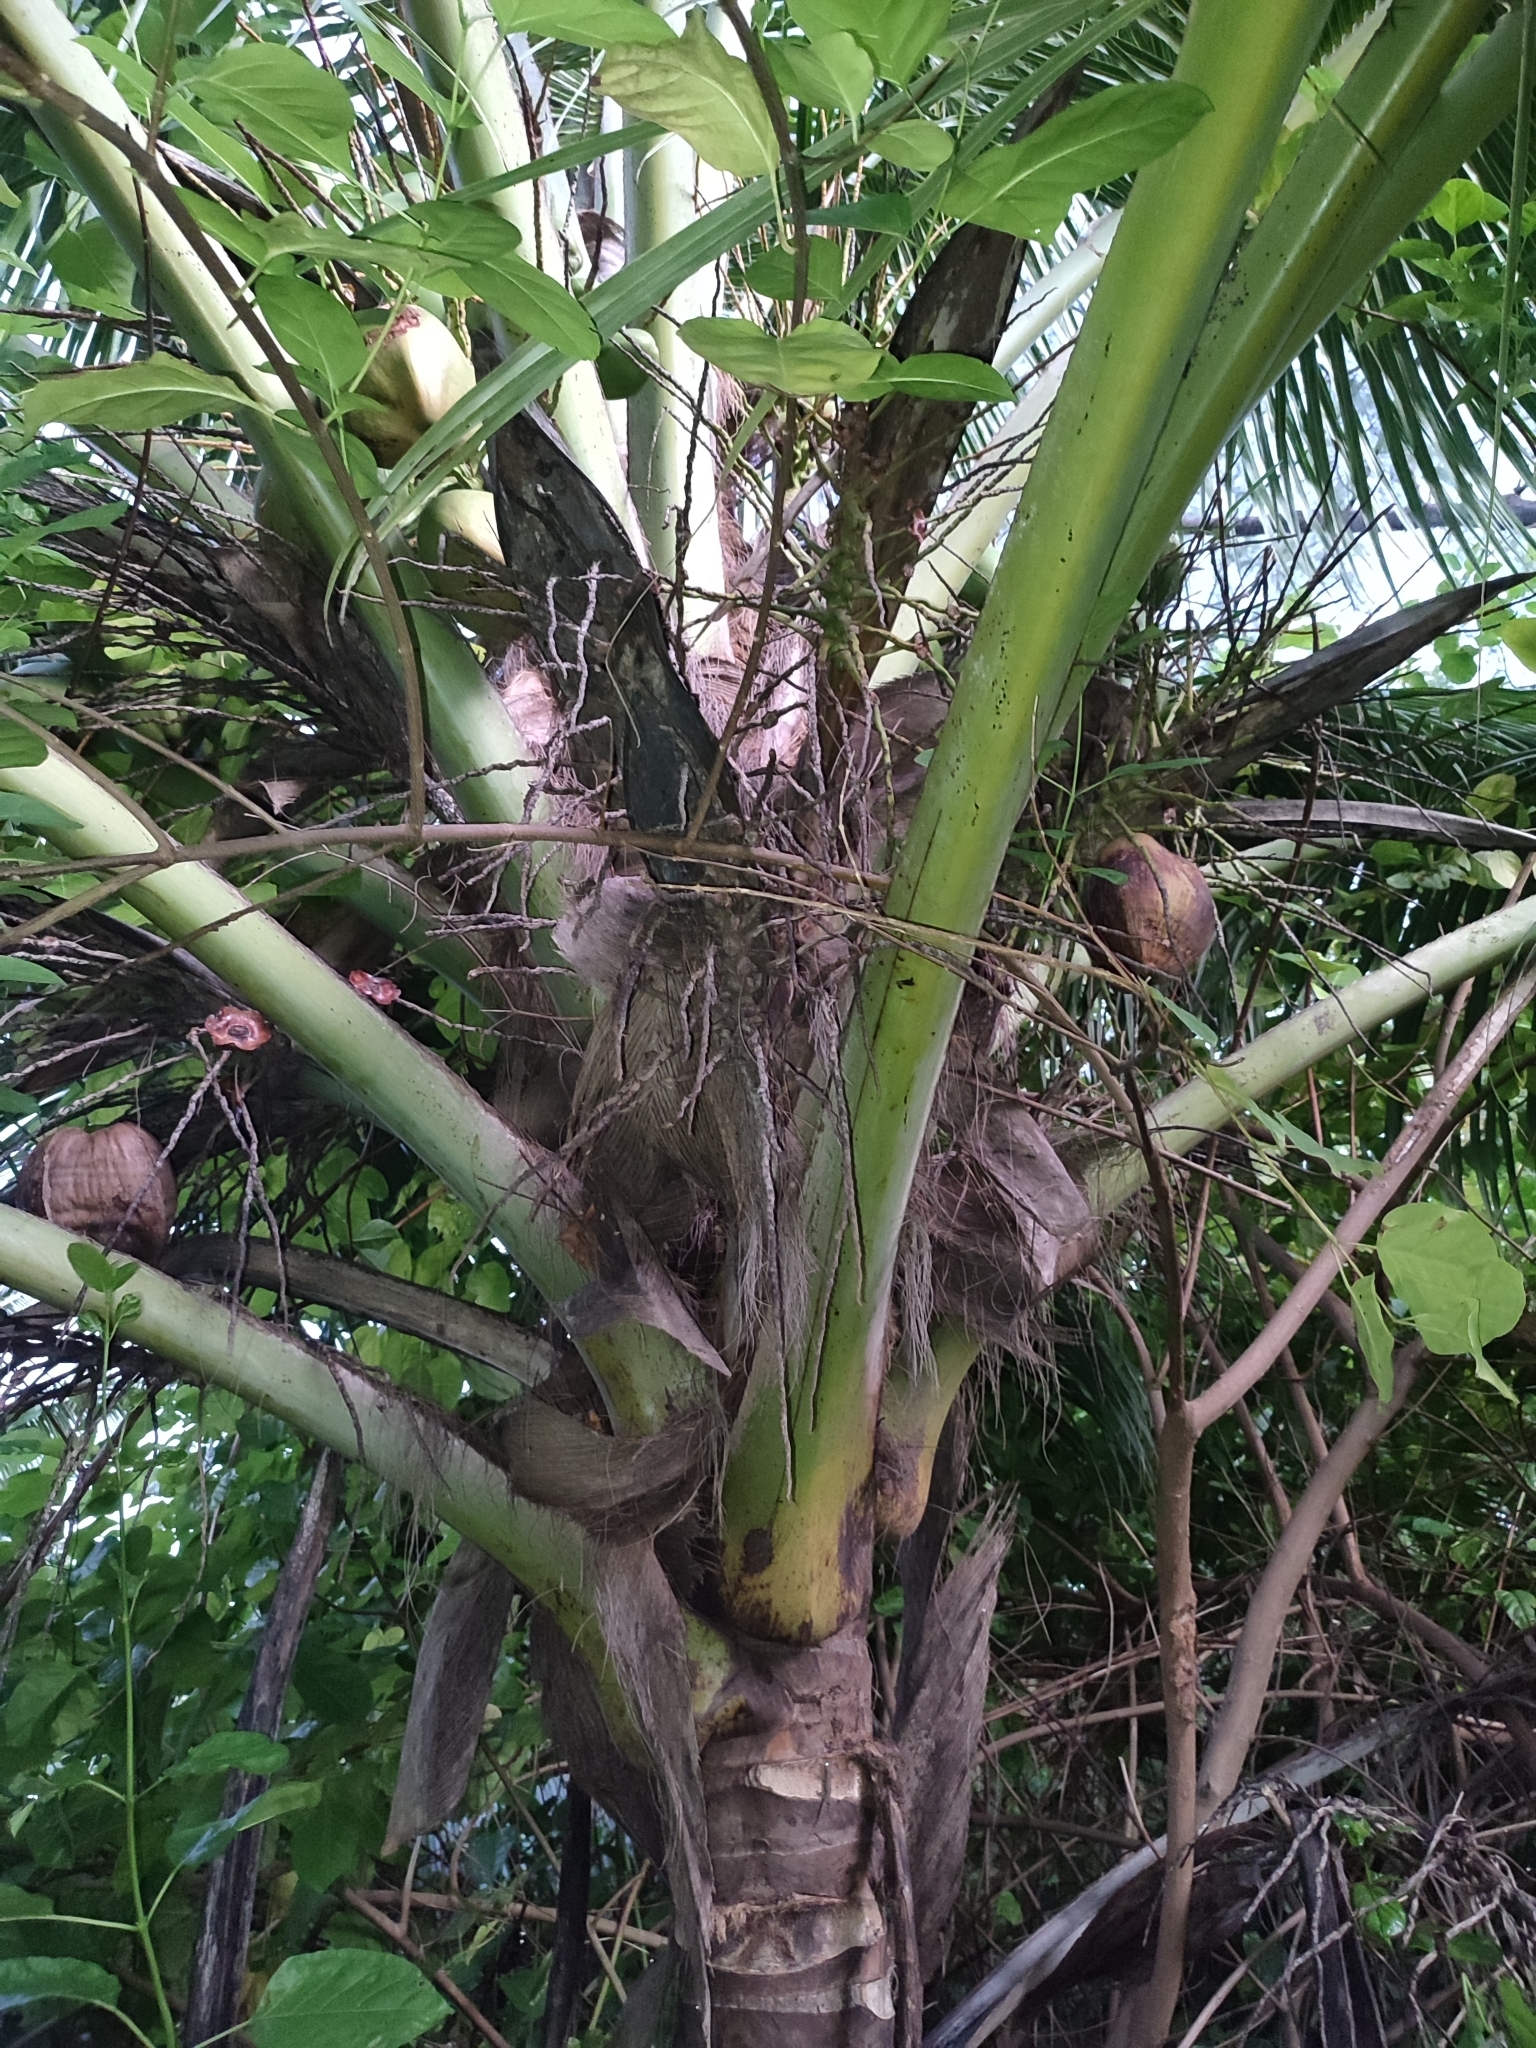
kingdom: Plantae
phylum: Tracheophyta
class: Liliopsida
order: Arecales
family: Arecaceae
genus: Cocos
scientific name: Cocos nucifera
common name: Coconut palm
